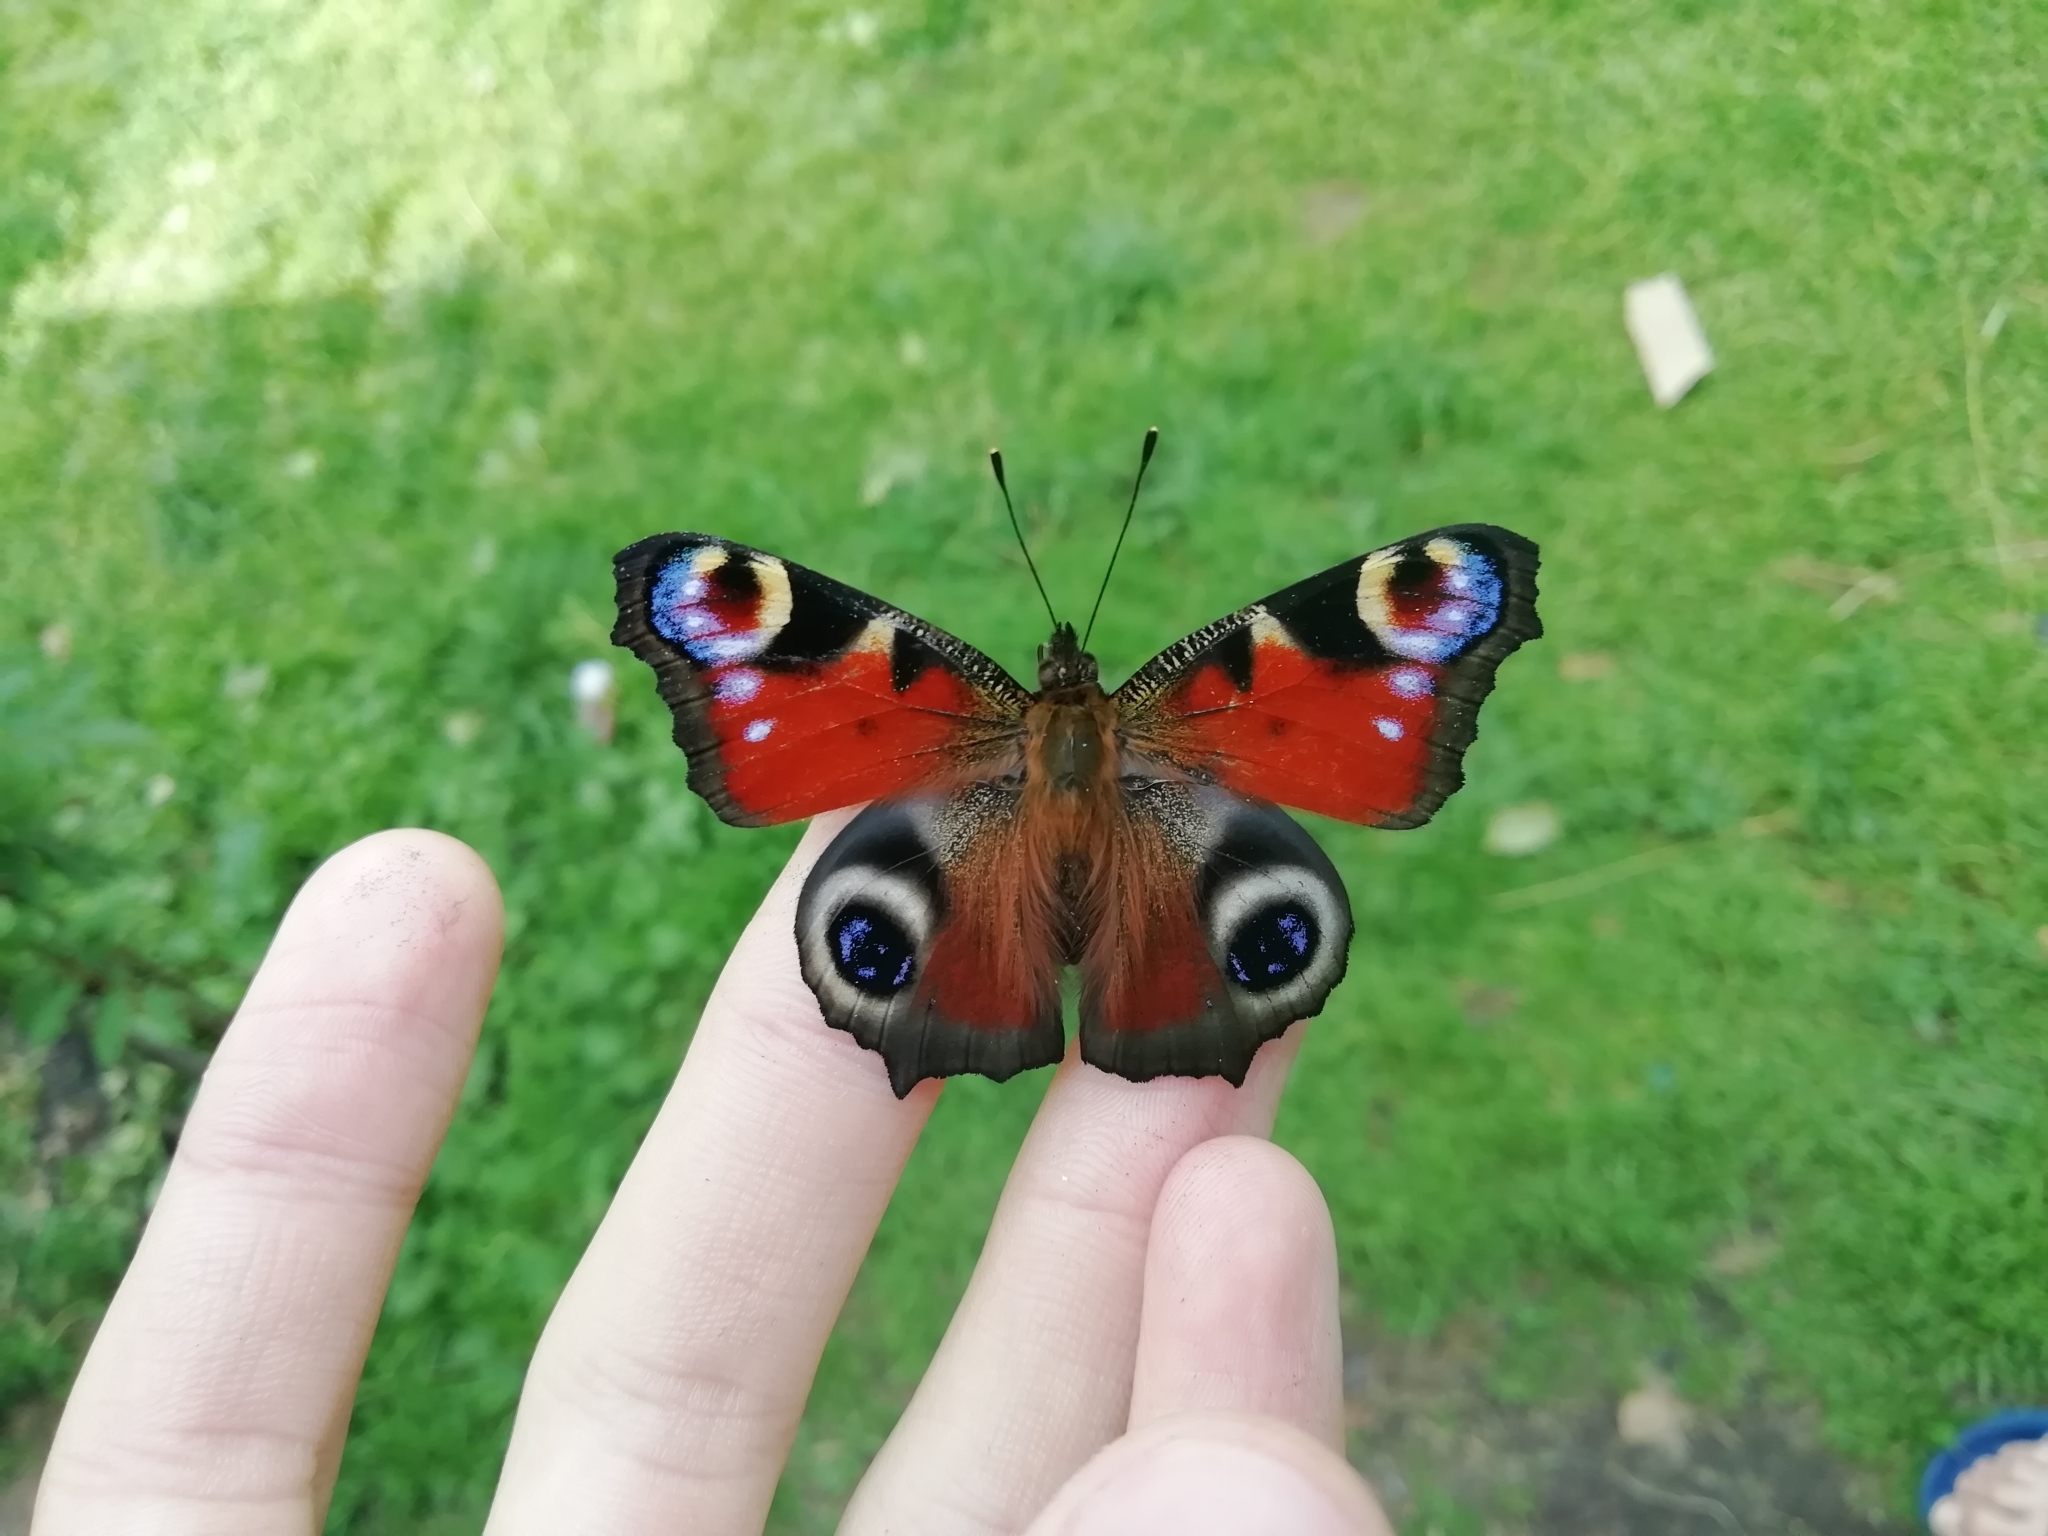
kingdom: Animalia
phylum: Arthropoda
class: Insecta
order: Lepidoptera
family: Nymphalidae
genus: Aglais
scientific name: Aglais io
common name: Peacock
